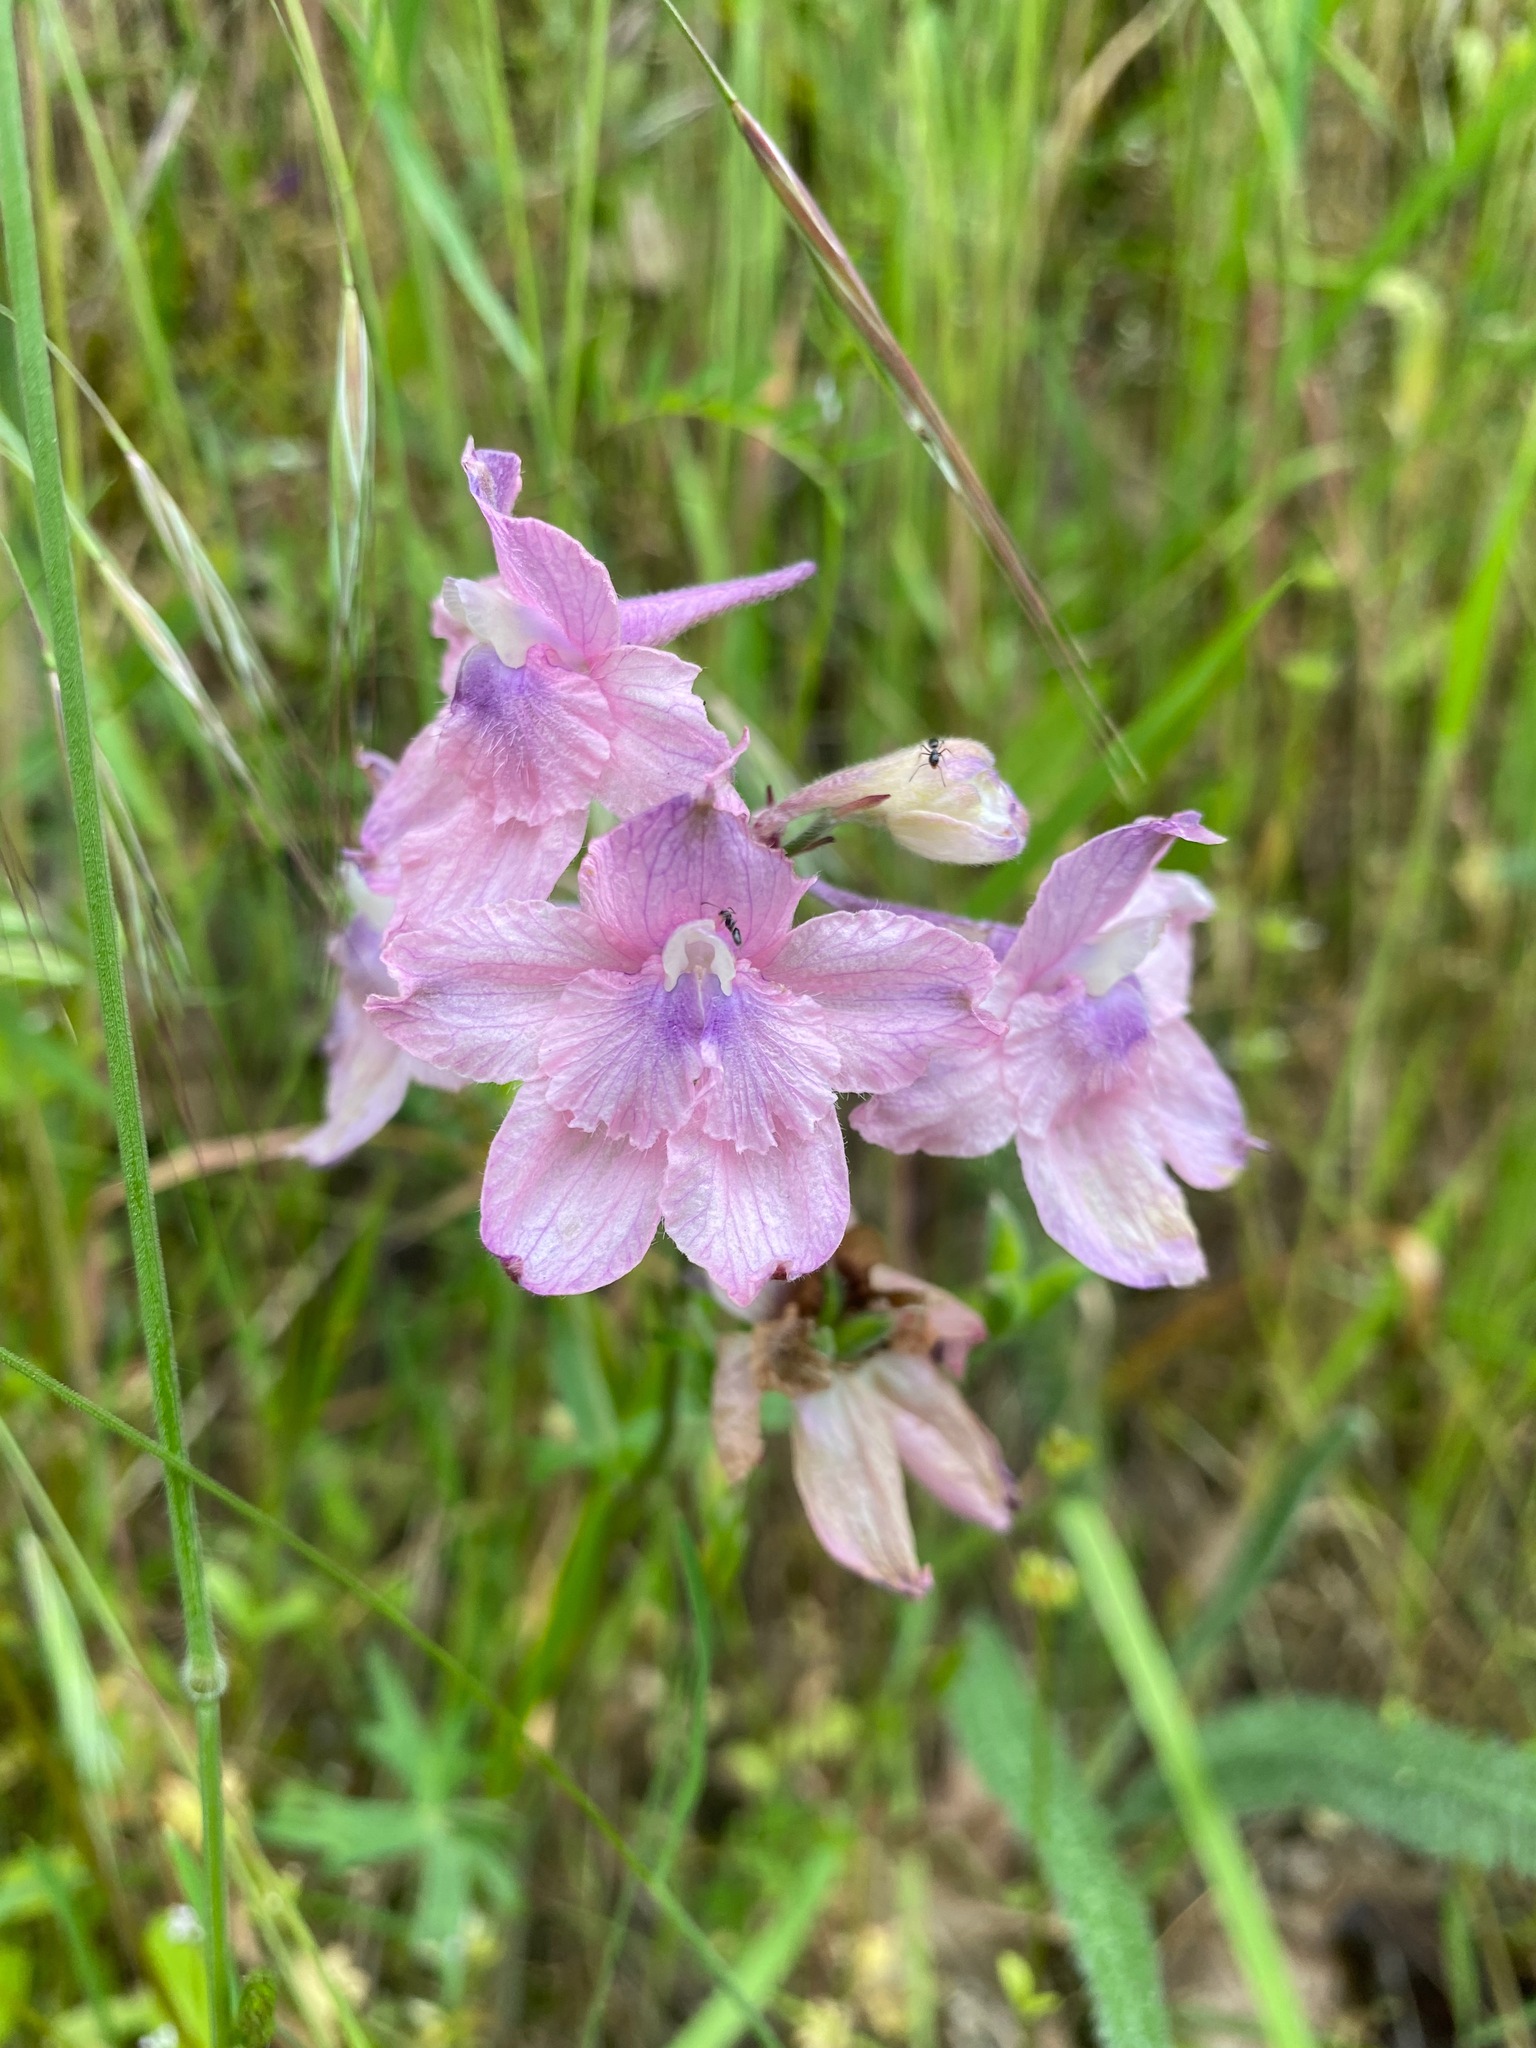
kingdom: Plantae
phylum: Tracheophyta
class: Magnoliopsida
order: Ranunculales
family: Ranunculaceae
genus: Delphinium
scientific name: Delphinium menziesii
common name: Menzies's larkspur
